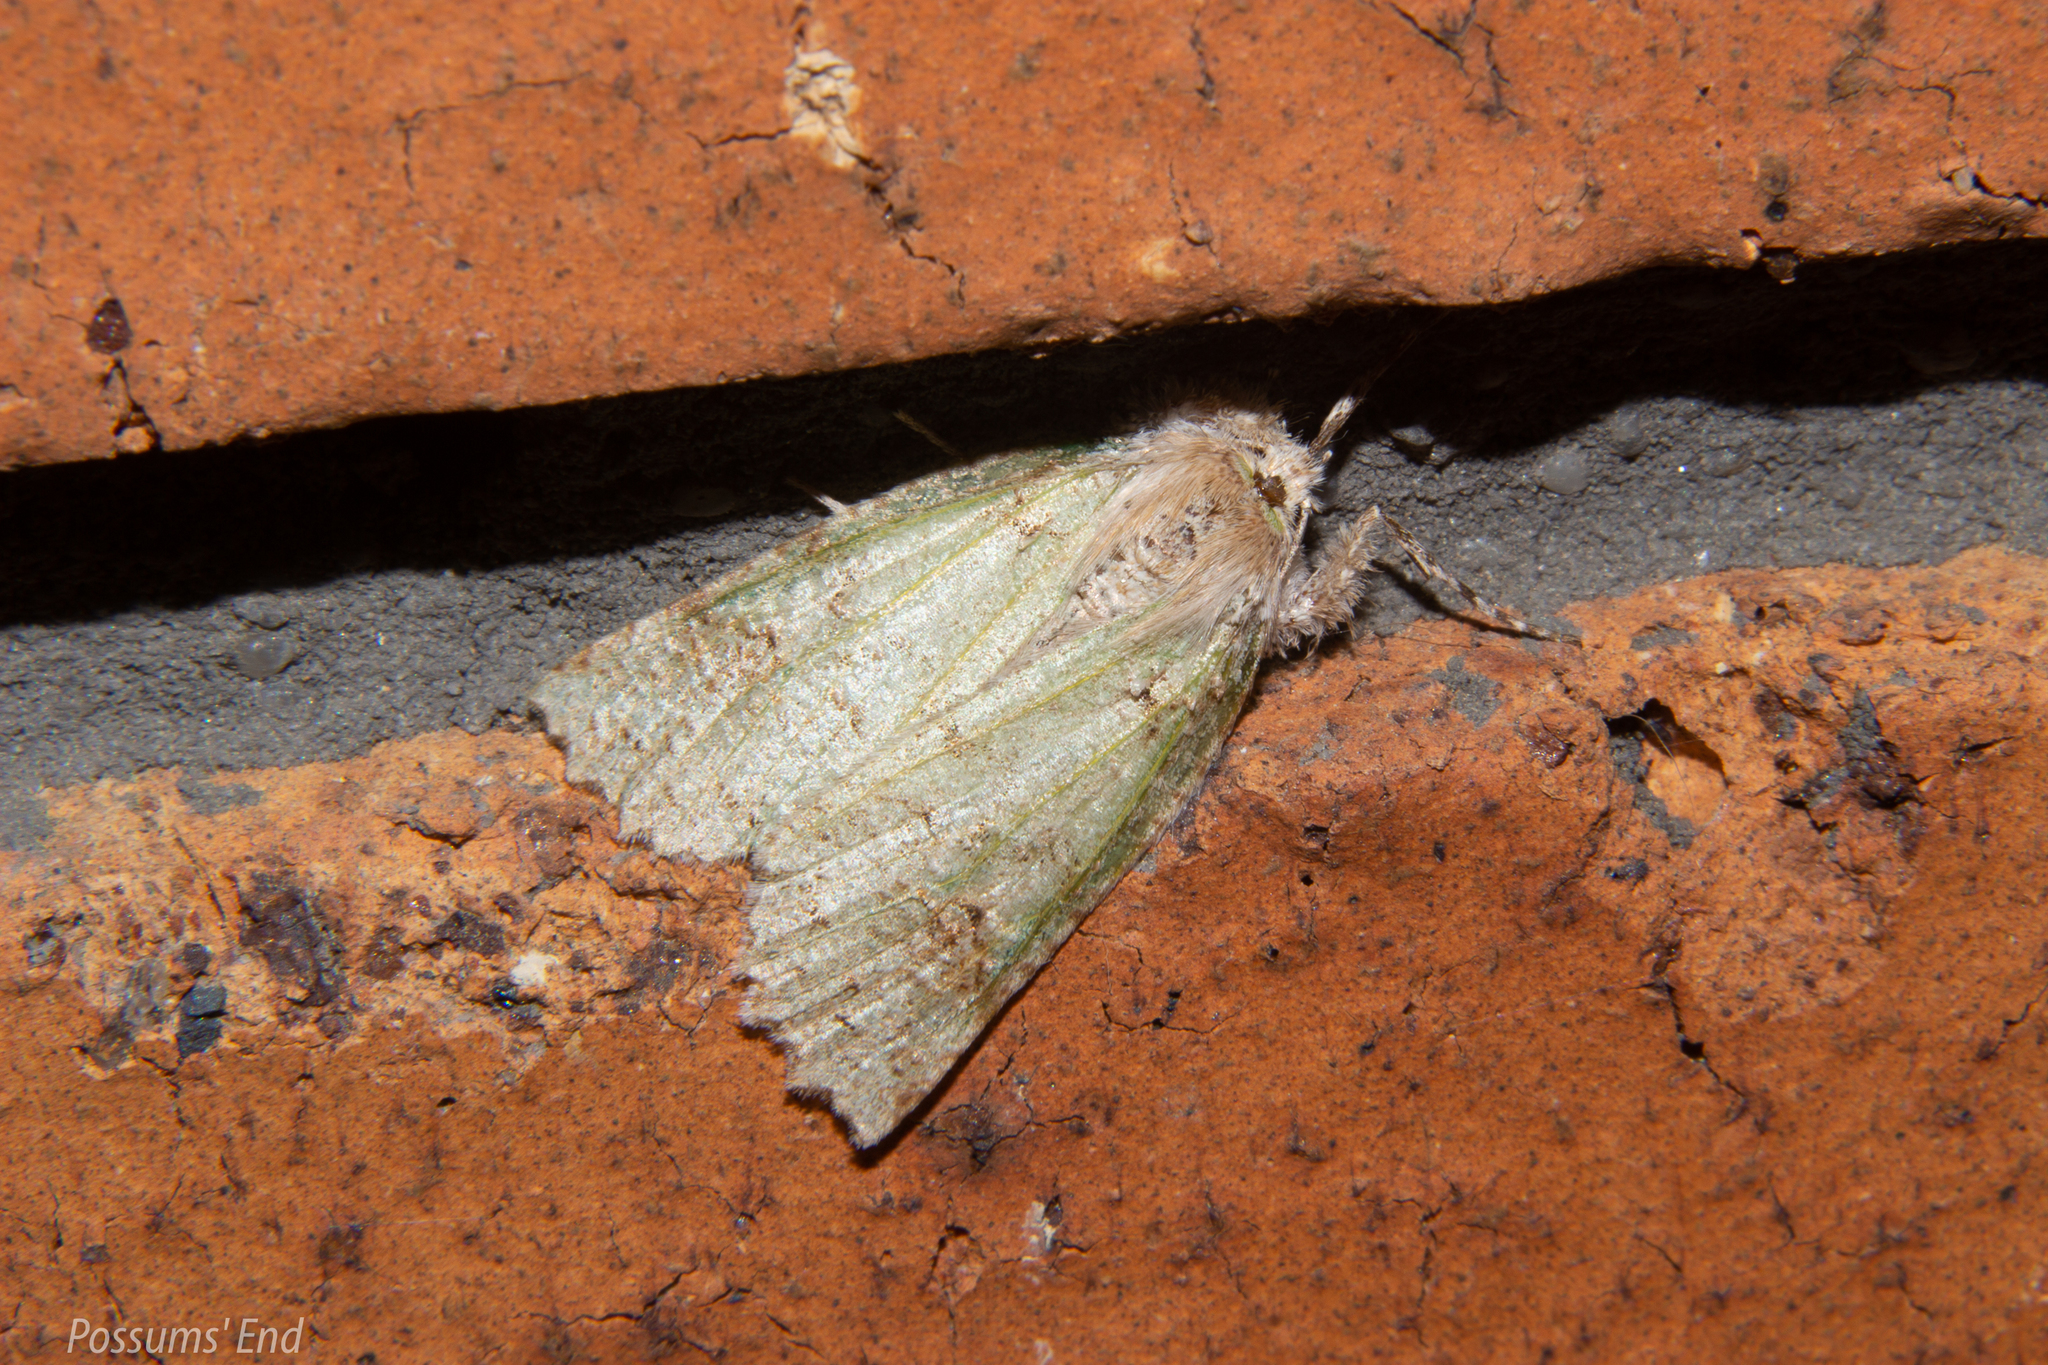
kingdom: Animalia
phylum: Arthropoda
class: Insecta
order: Lepidoptera
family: Geometridae
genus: Declana
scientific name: Declana floccosa
